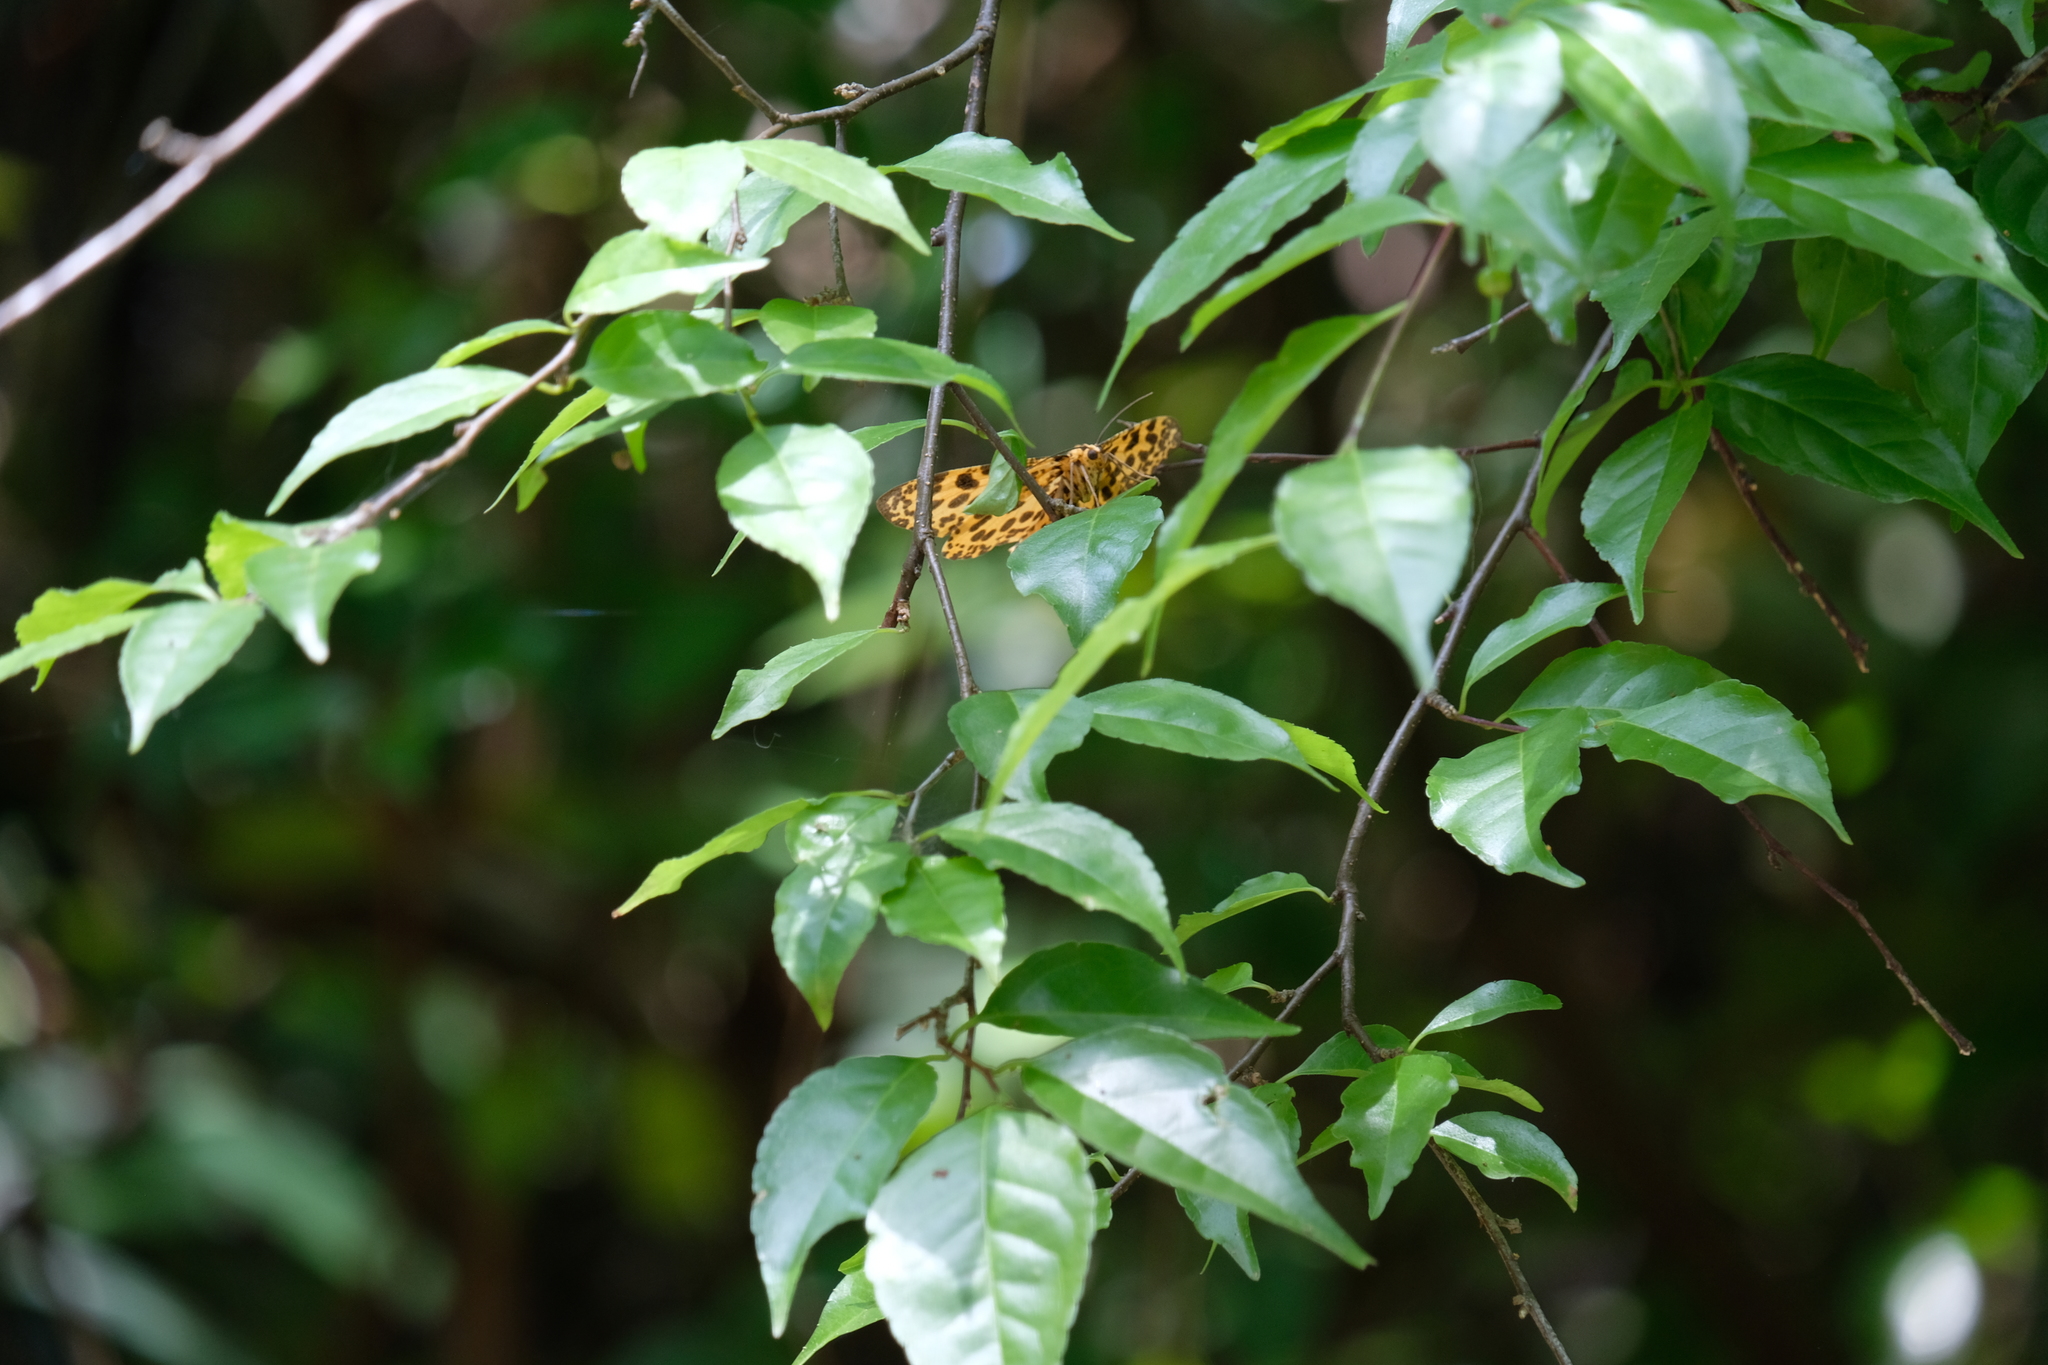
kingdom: Animalia
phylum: Arthropoda
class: Insecta
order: Lepidoptera
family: Geometridae
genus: Obeidia
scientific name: Obeidia Epobeidia tigrata
